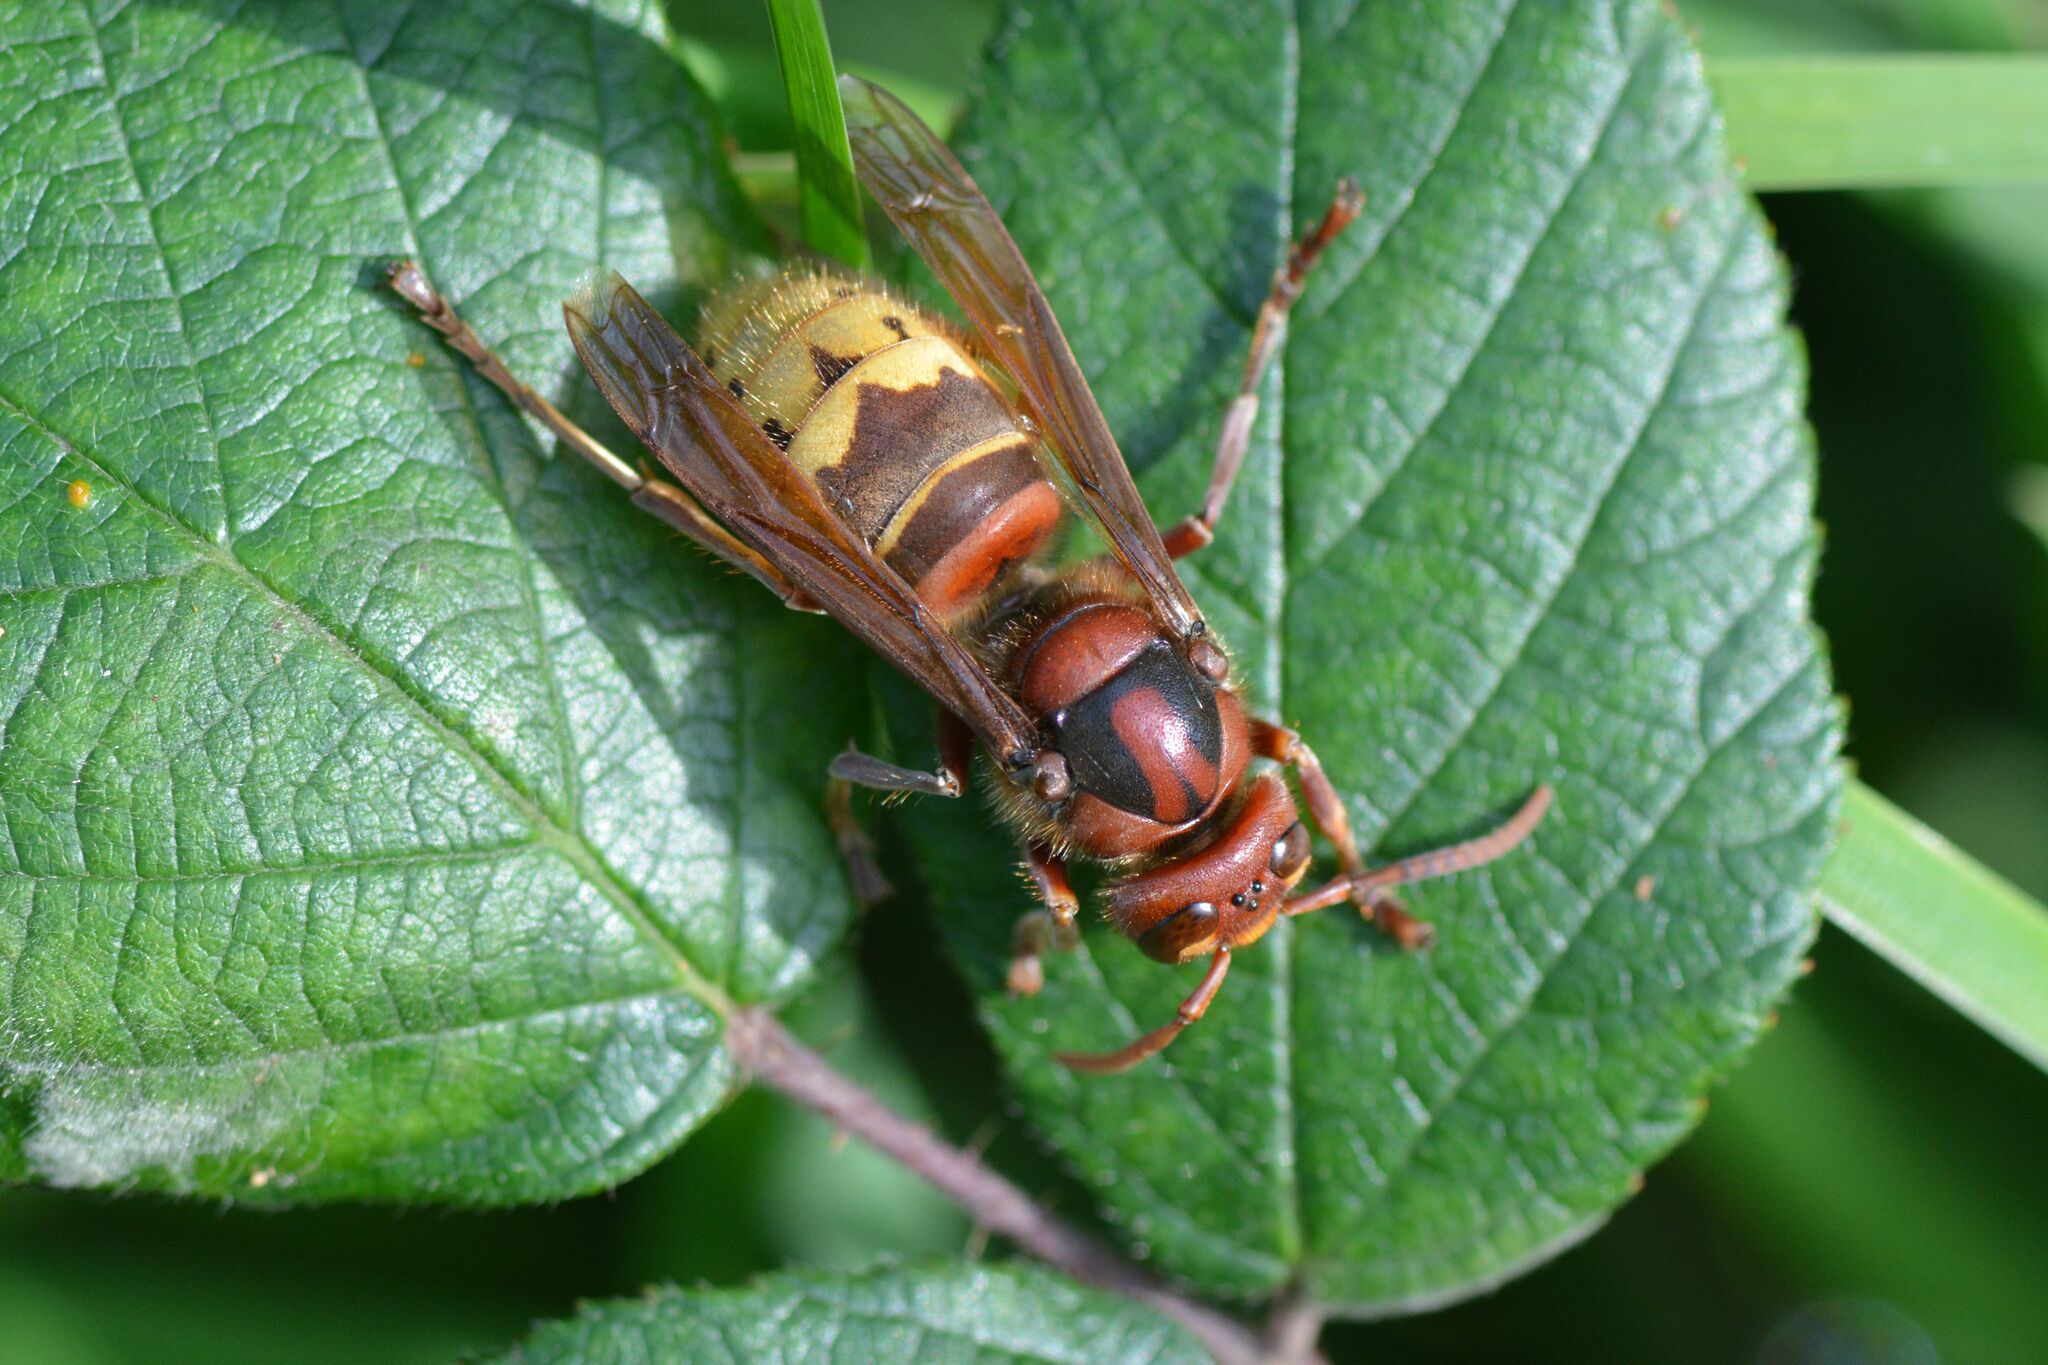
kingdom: Animalia
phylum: Arthropoda
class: Insecta
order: Hymenoptera
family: Vespidae
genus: Vespa
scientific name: Vespa crabro
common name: Hornet
